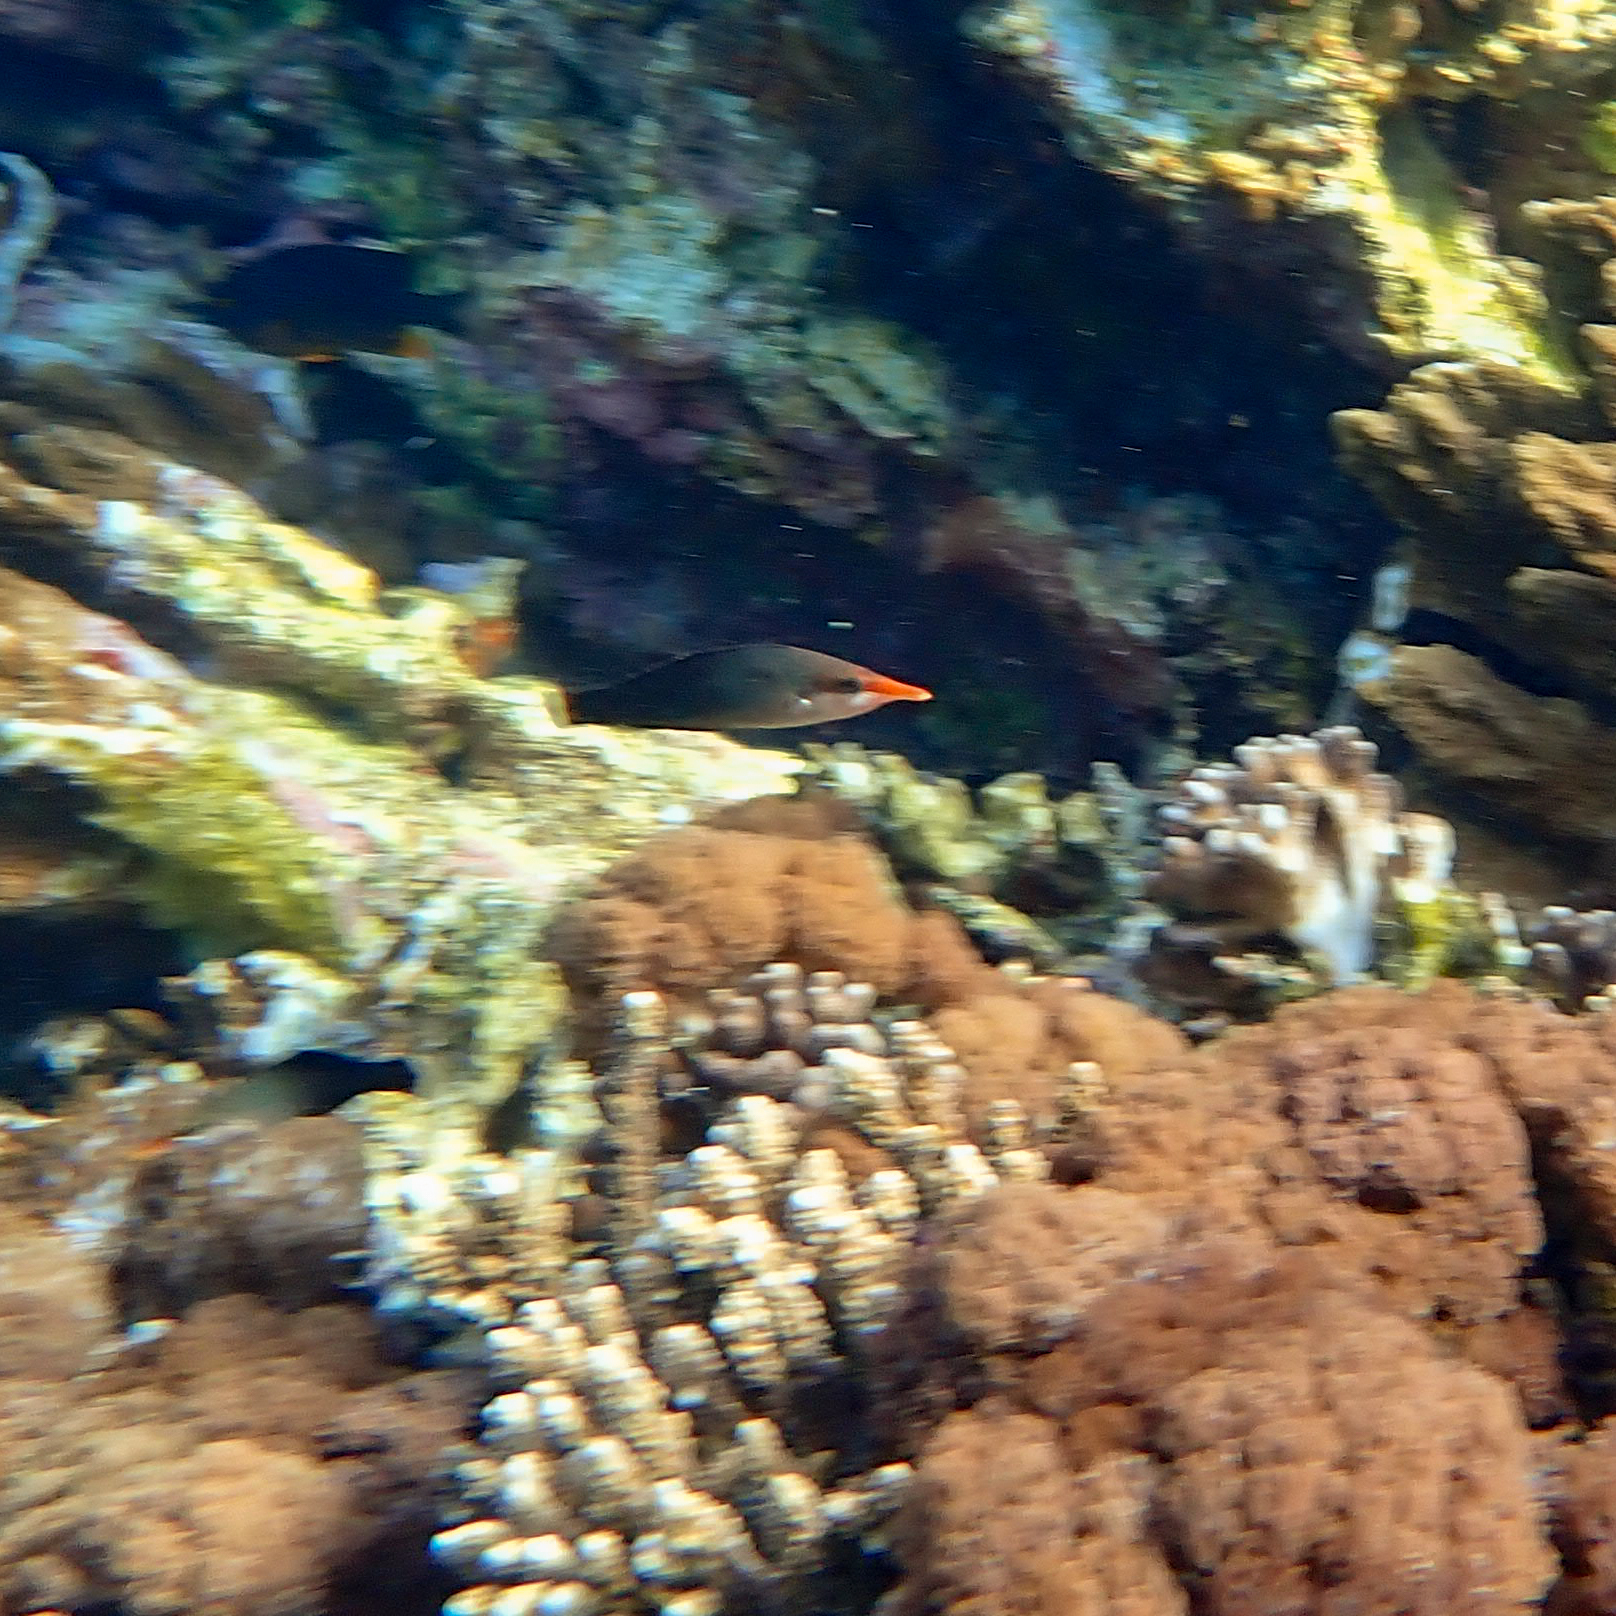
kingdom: Animalia
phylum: Chordata
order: Perciformes
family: Labridae
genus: Gomphosus
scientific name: Gomphosus varius
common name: Bird wrasse
